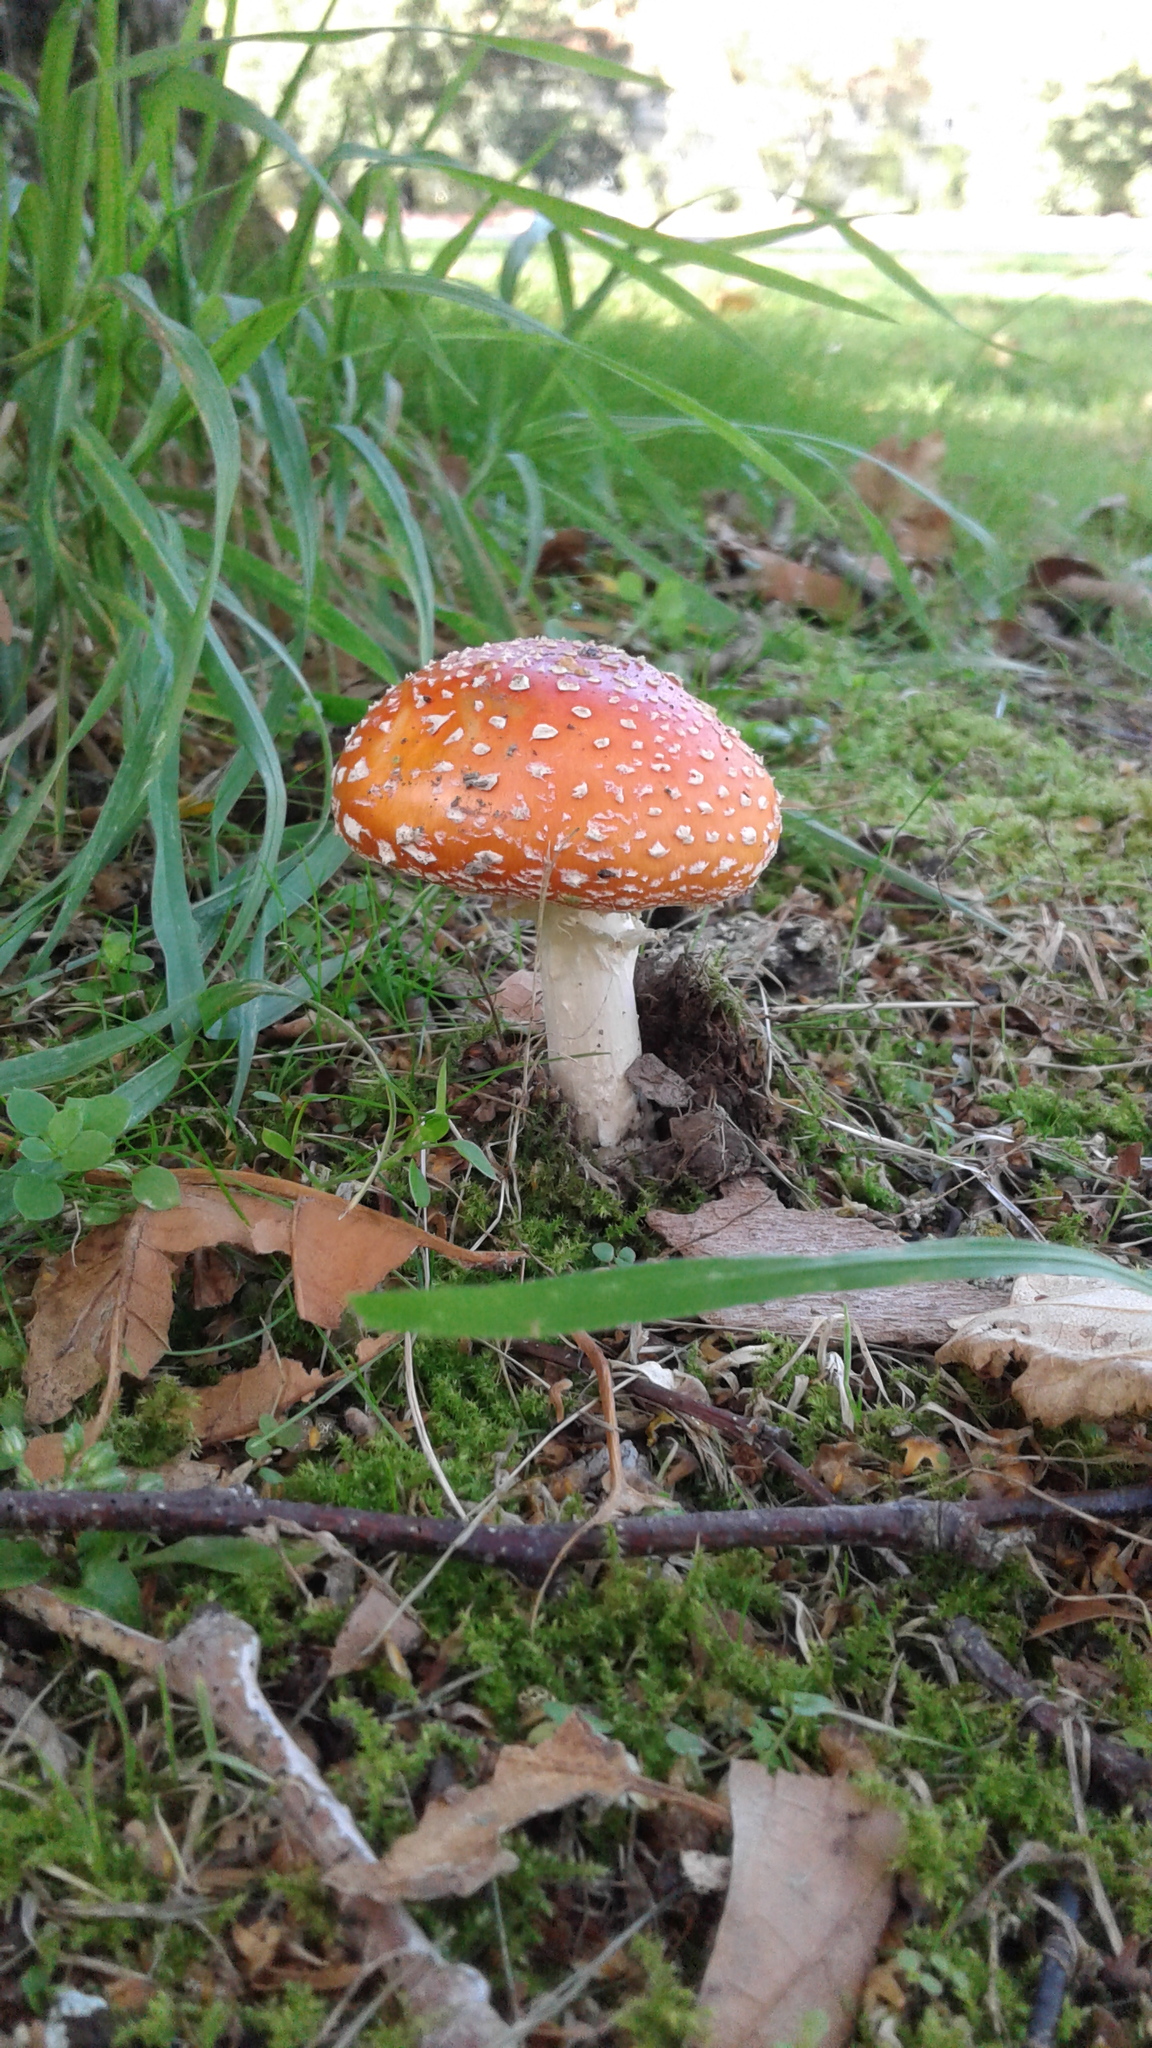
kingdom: Fungi
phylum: Basidiomycota
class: Agaricomycetes
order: Agaricales
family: Amanitaceae
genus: Amanita
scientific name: Amanita muscaria
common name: Fly agaric
